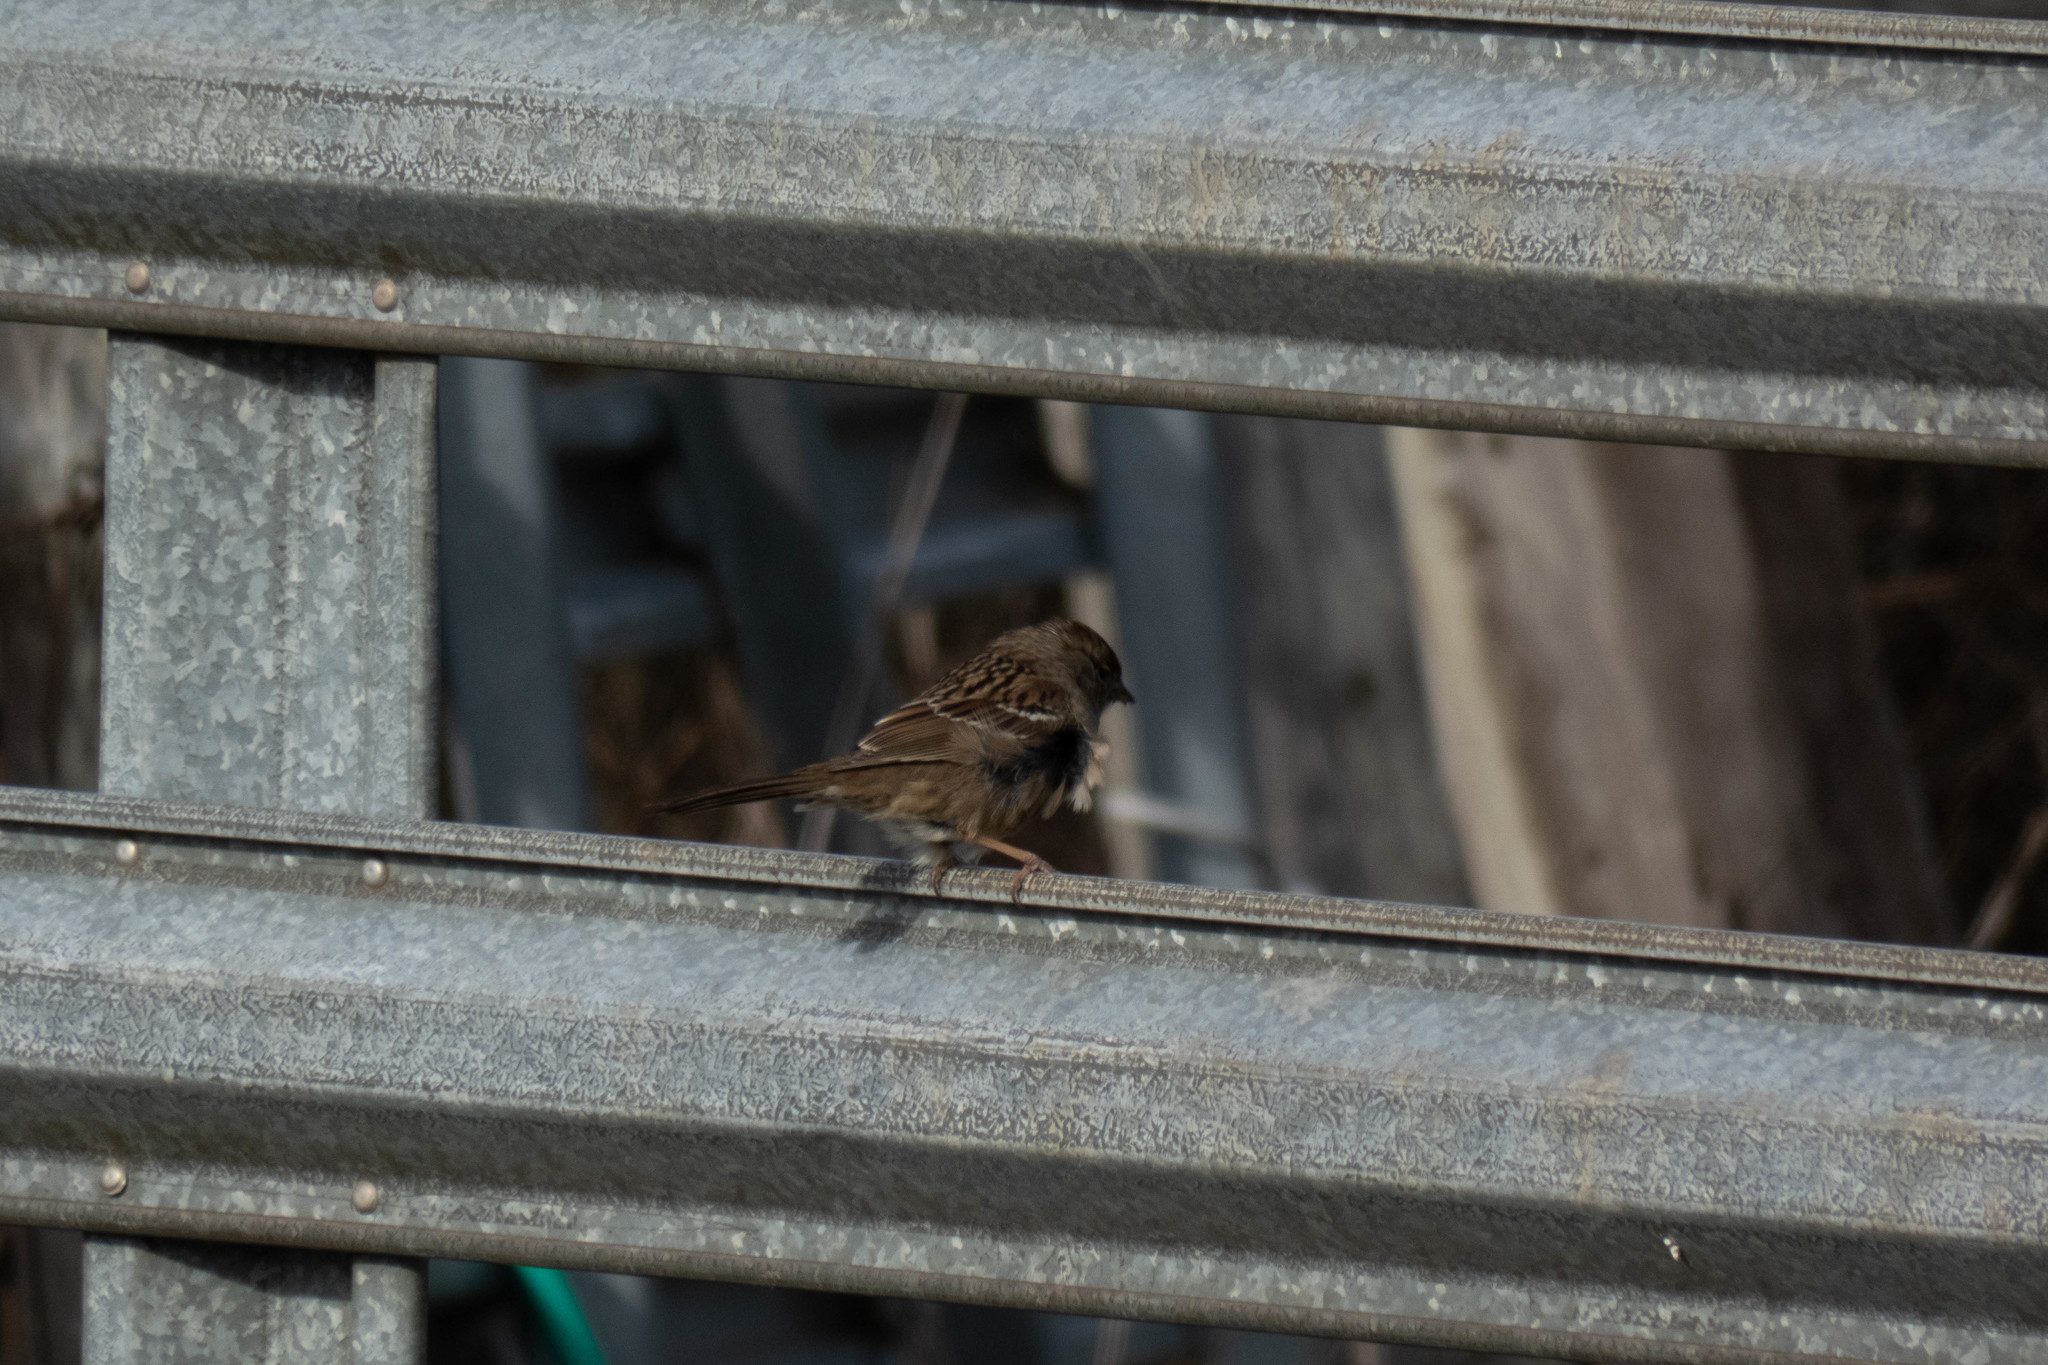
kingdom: Animalia
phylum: Chordata
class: Aves
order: Passeriformes
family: Passerellidae
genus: Zonotrichia
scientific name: Zonotrichia atricapilla
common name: Golden-crowned sparrow
